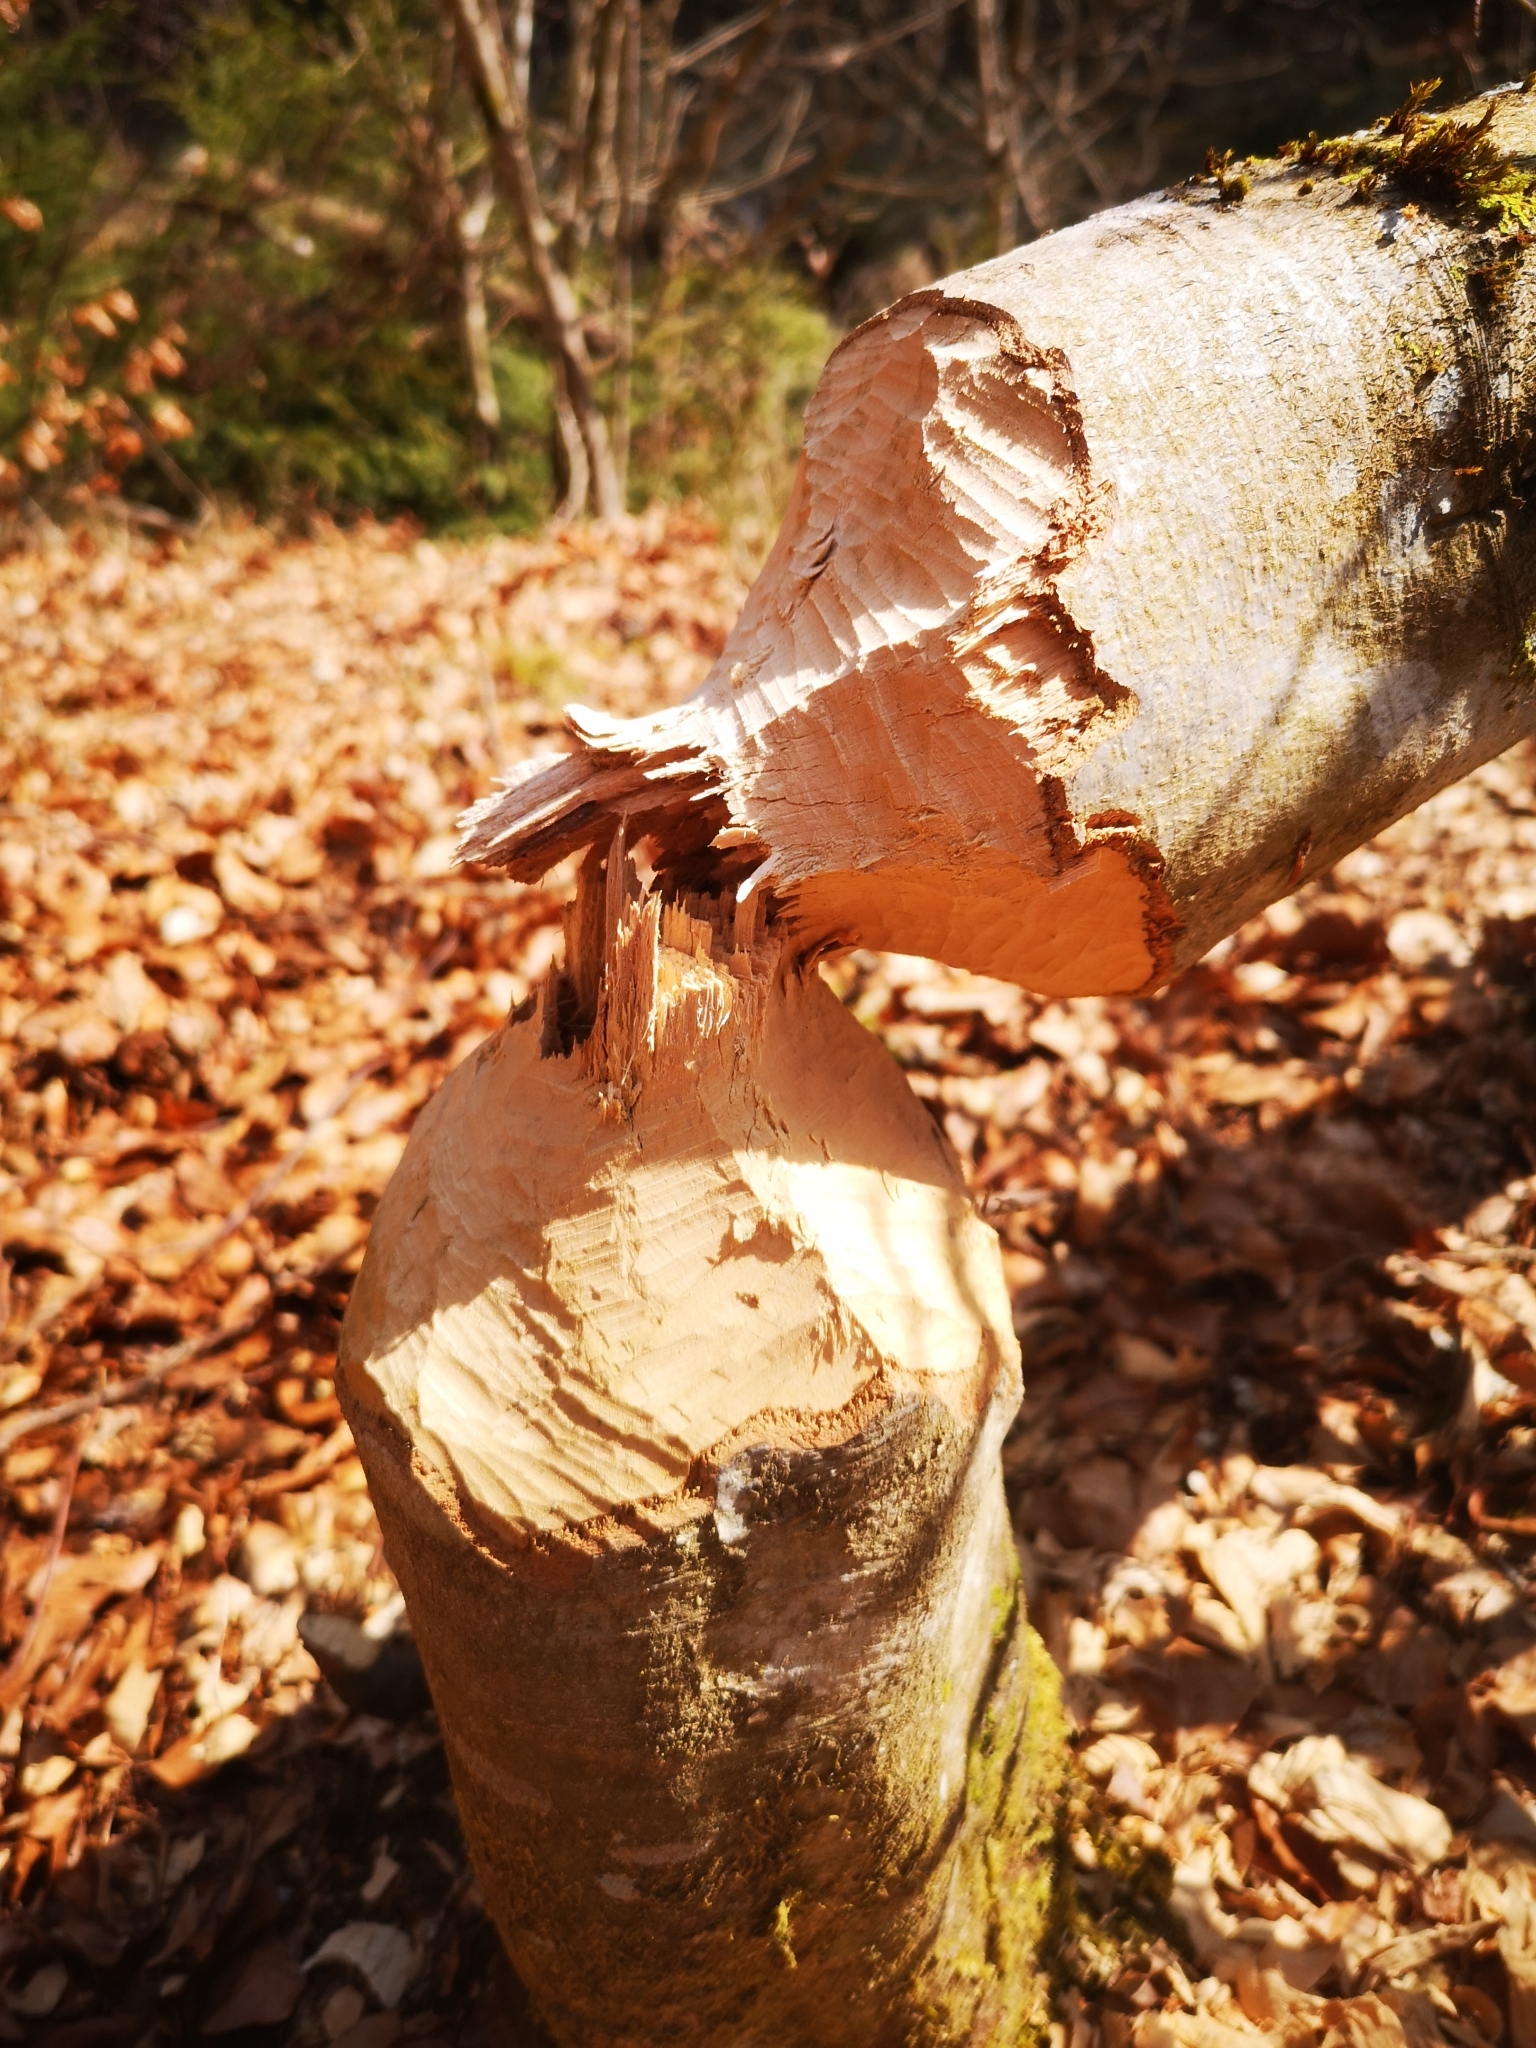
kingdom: Animalia
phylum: Chordata
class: Mammalia
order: Rodentia
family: Castoridae
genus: Castor
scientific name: Castor fiber
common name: Eurasian beaver
